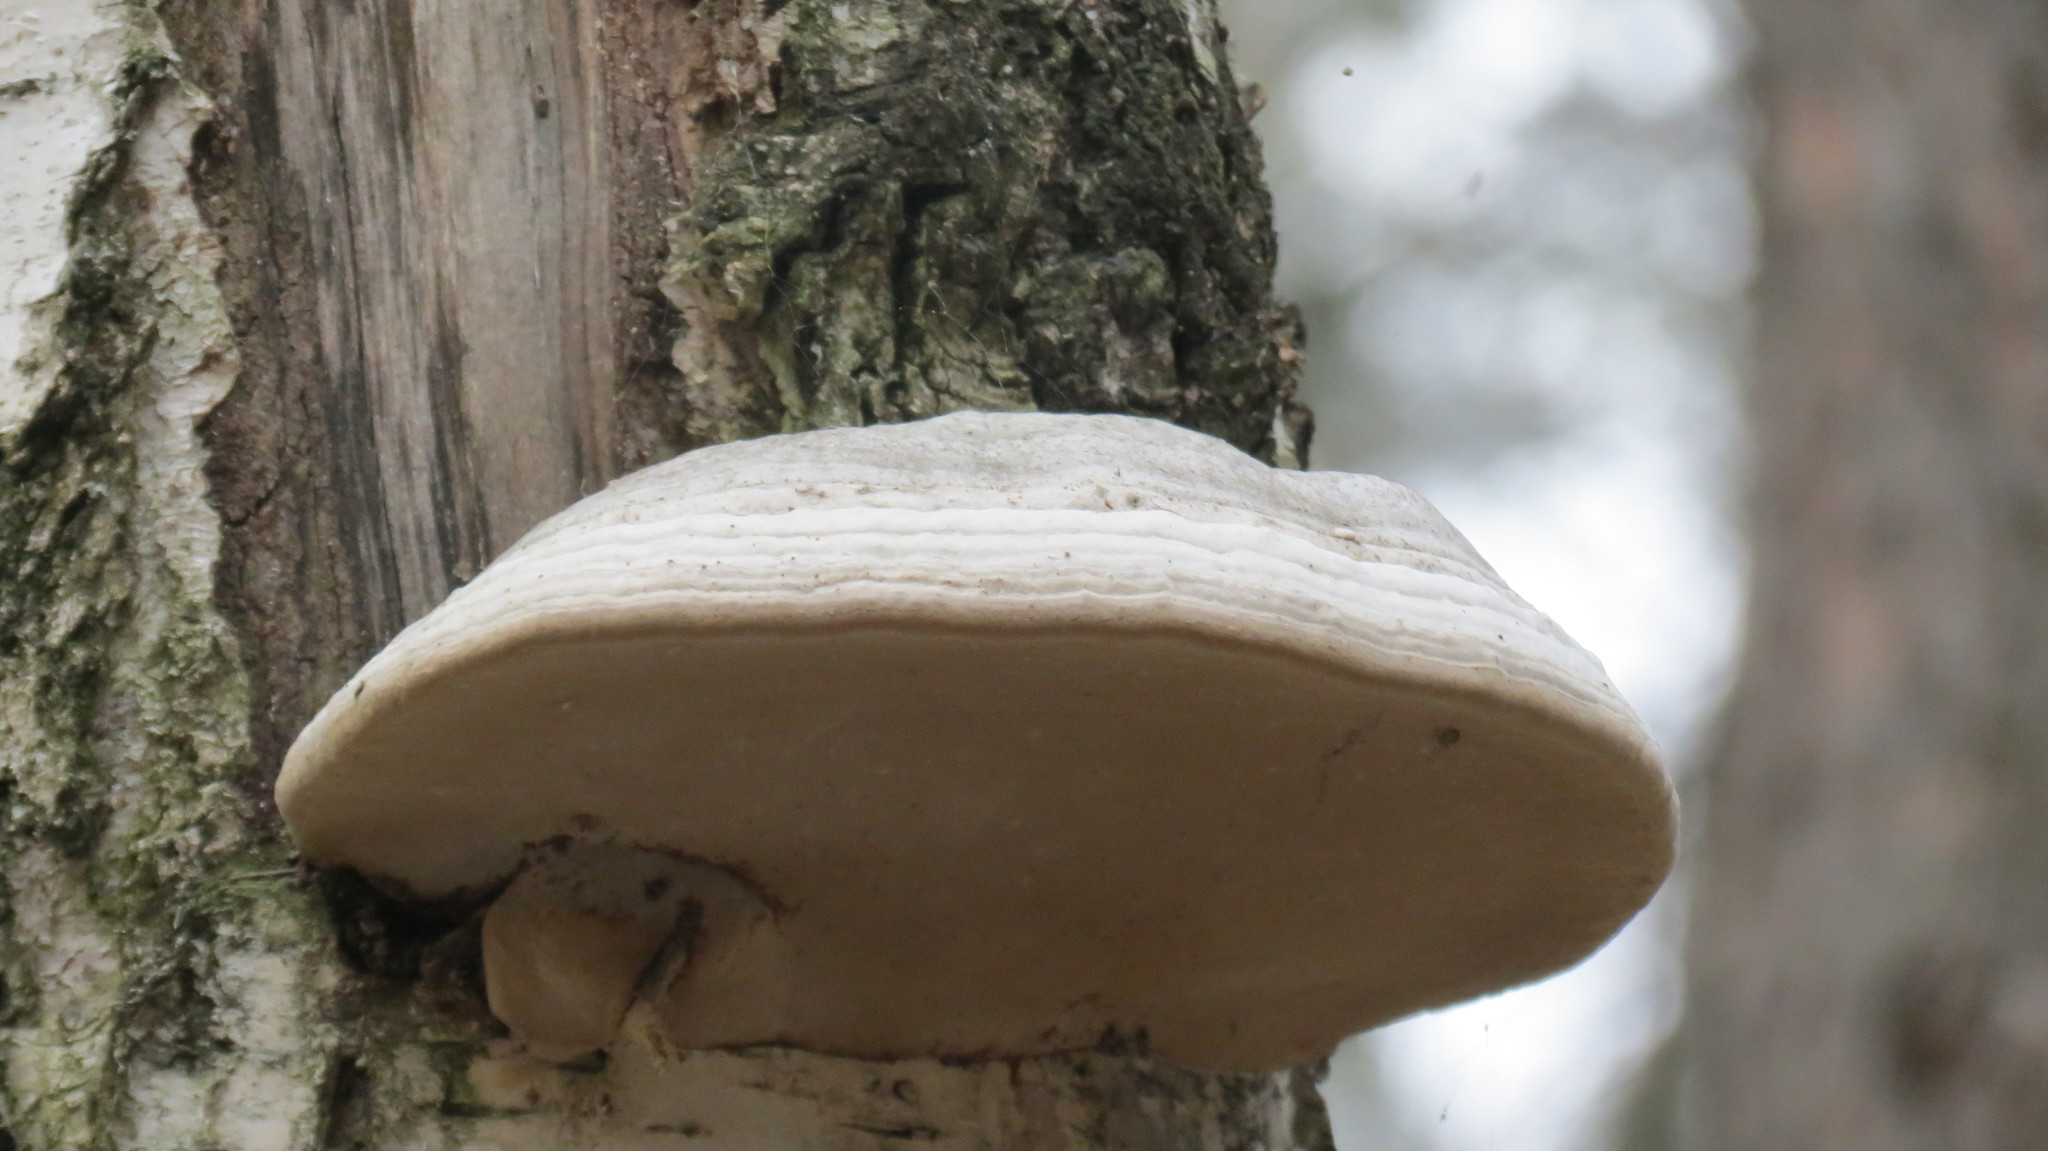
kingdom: Fungi
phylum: Basidiomycota
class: Agaricomycetes
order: Polyporales
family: Polyporaceae
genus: Fomes
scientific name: Fomes fomentarius
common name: Hoof fungus
